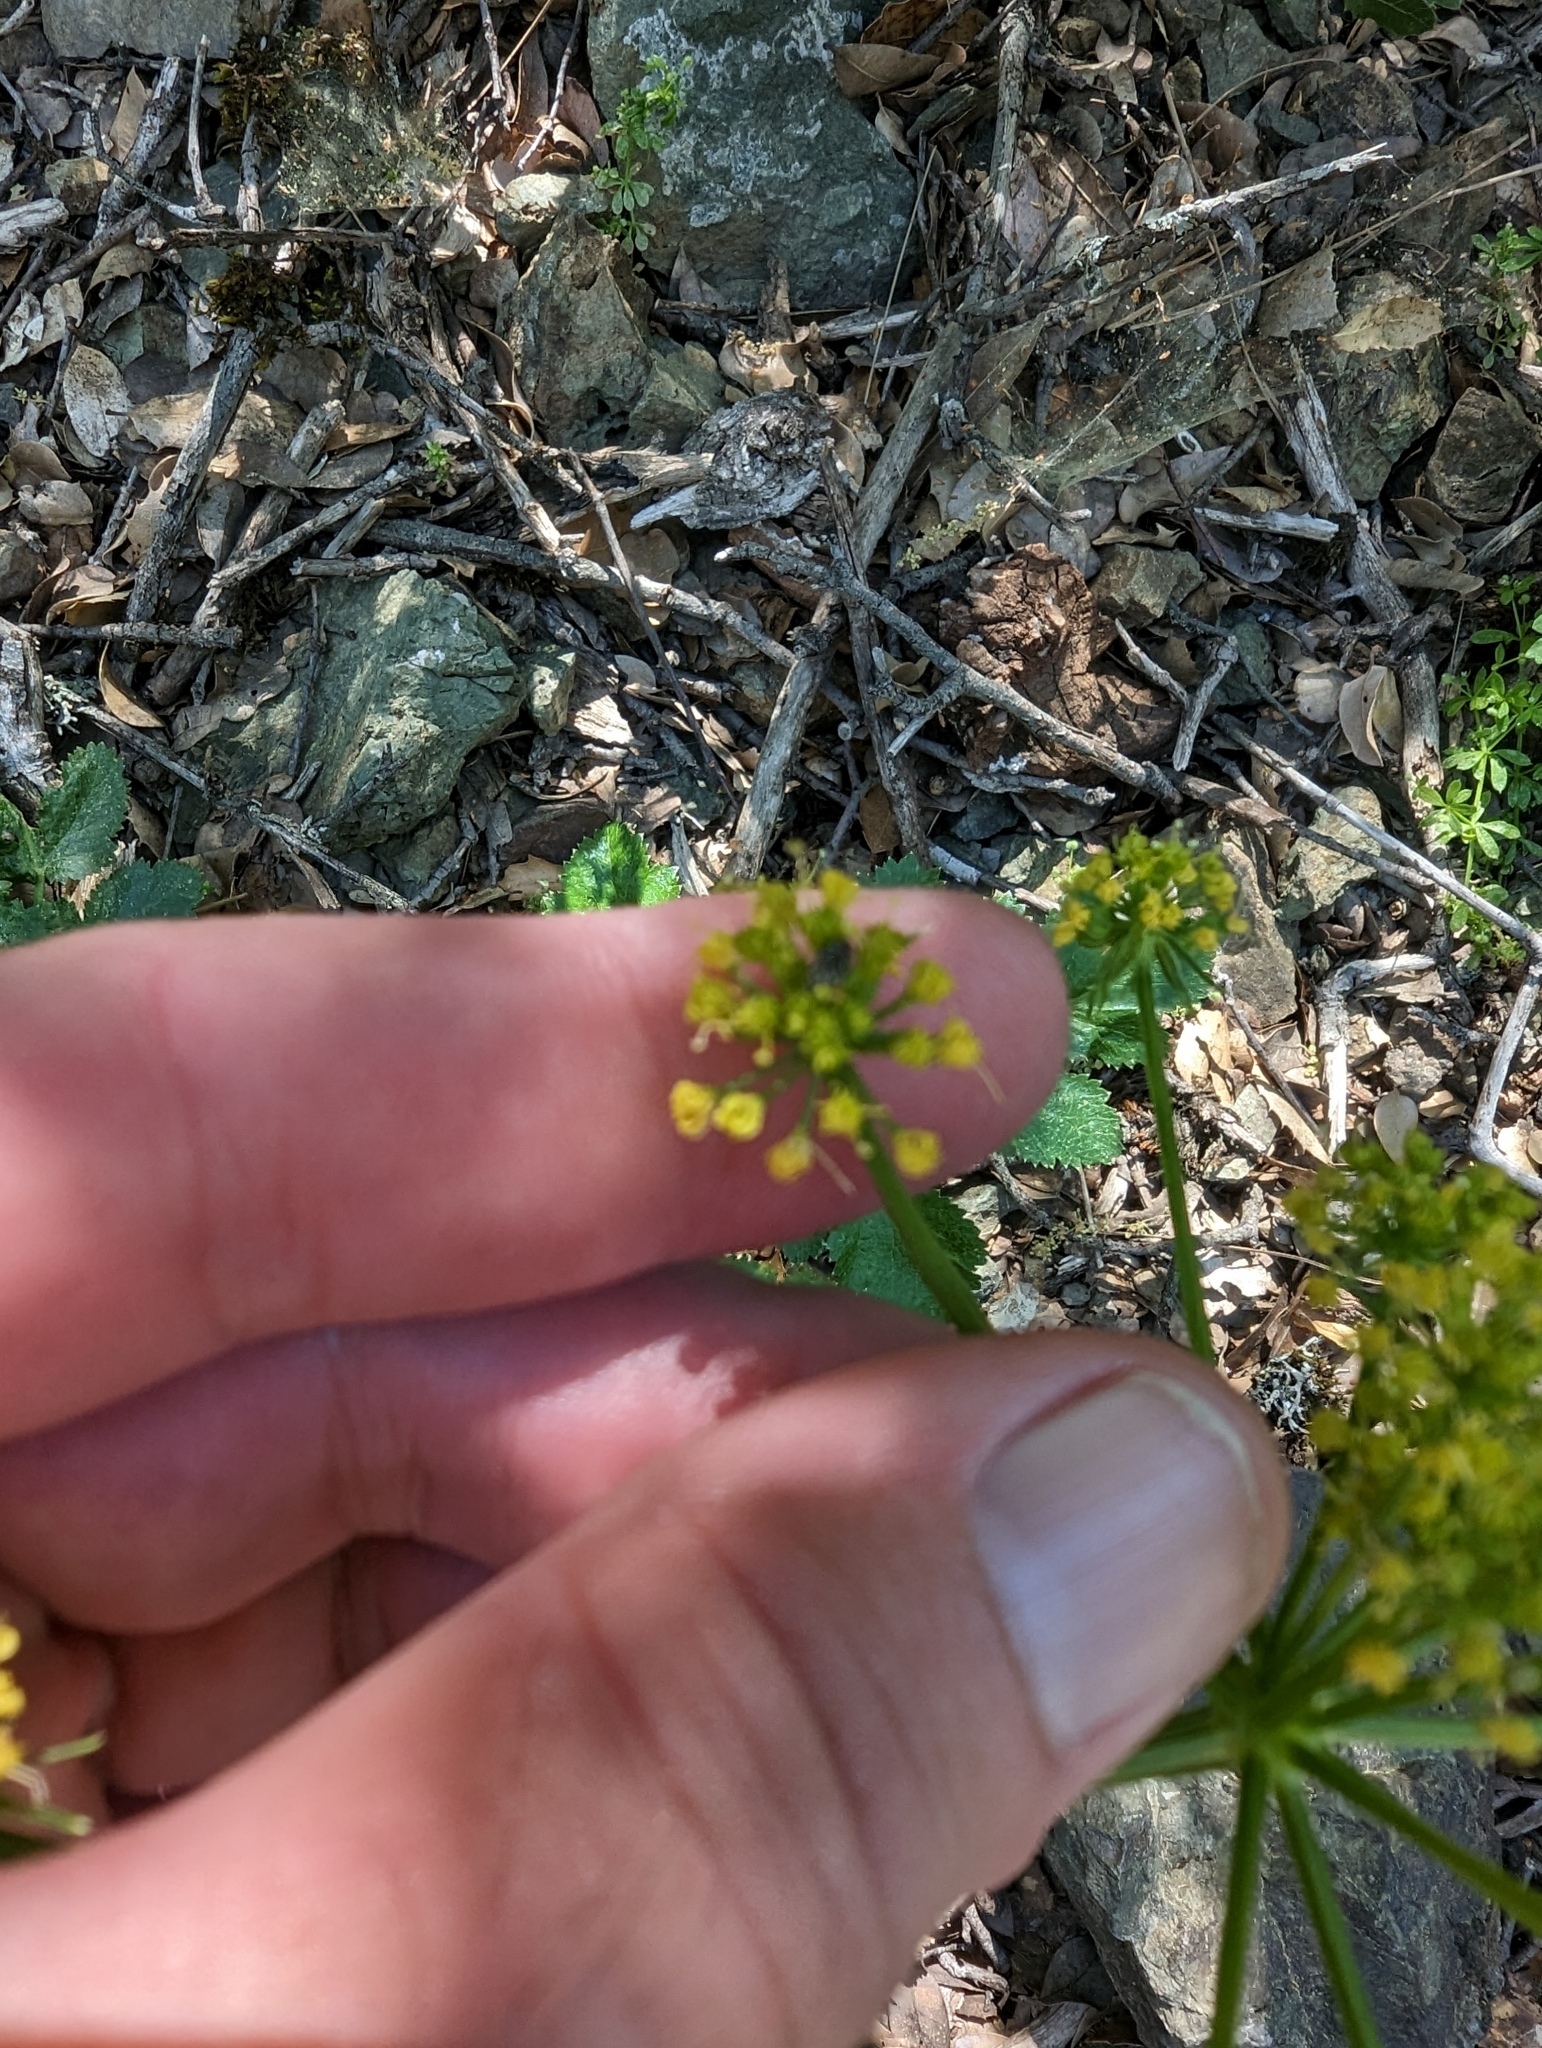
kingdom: Plantae
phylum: Tracheophyta
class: Magnoliopsida
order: Apiales
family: Apiaceae
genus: Tauschia
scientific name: Tauschia hartwegii
